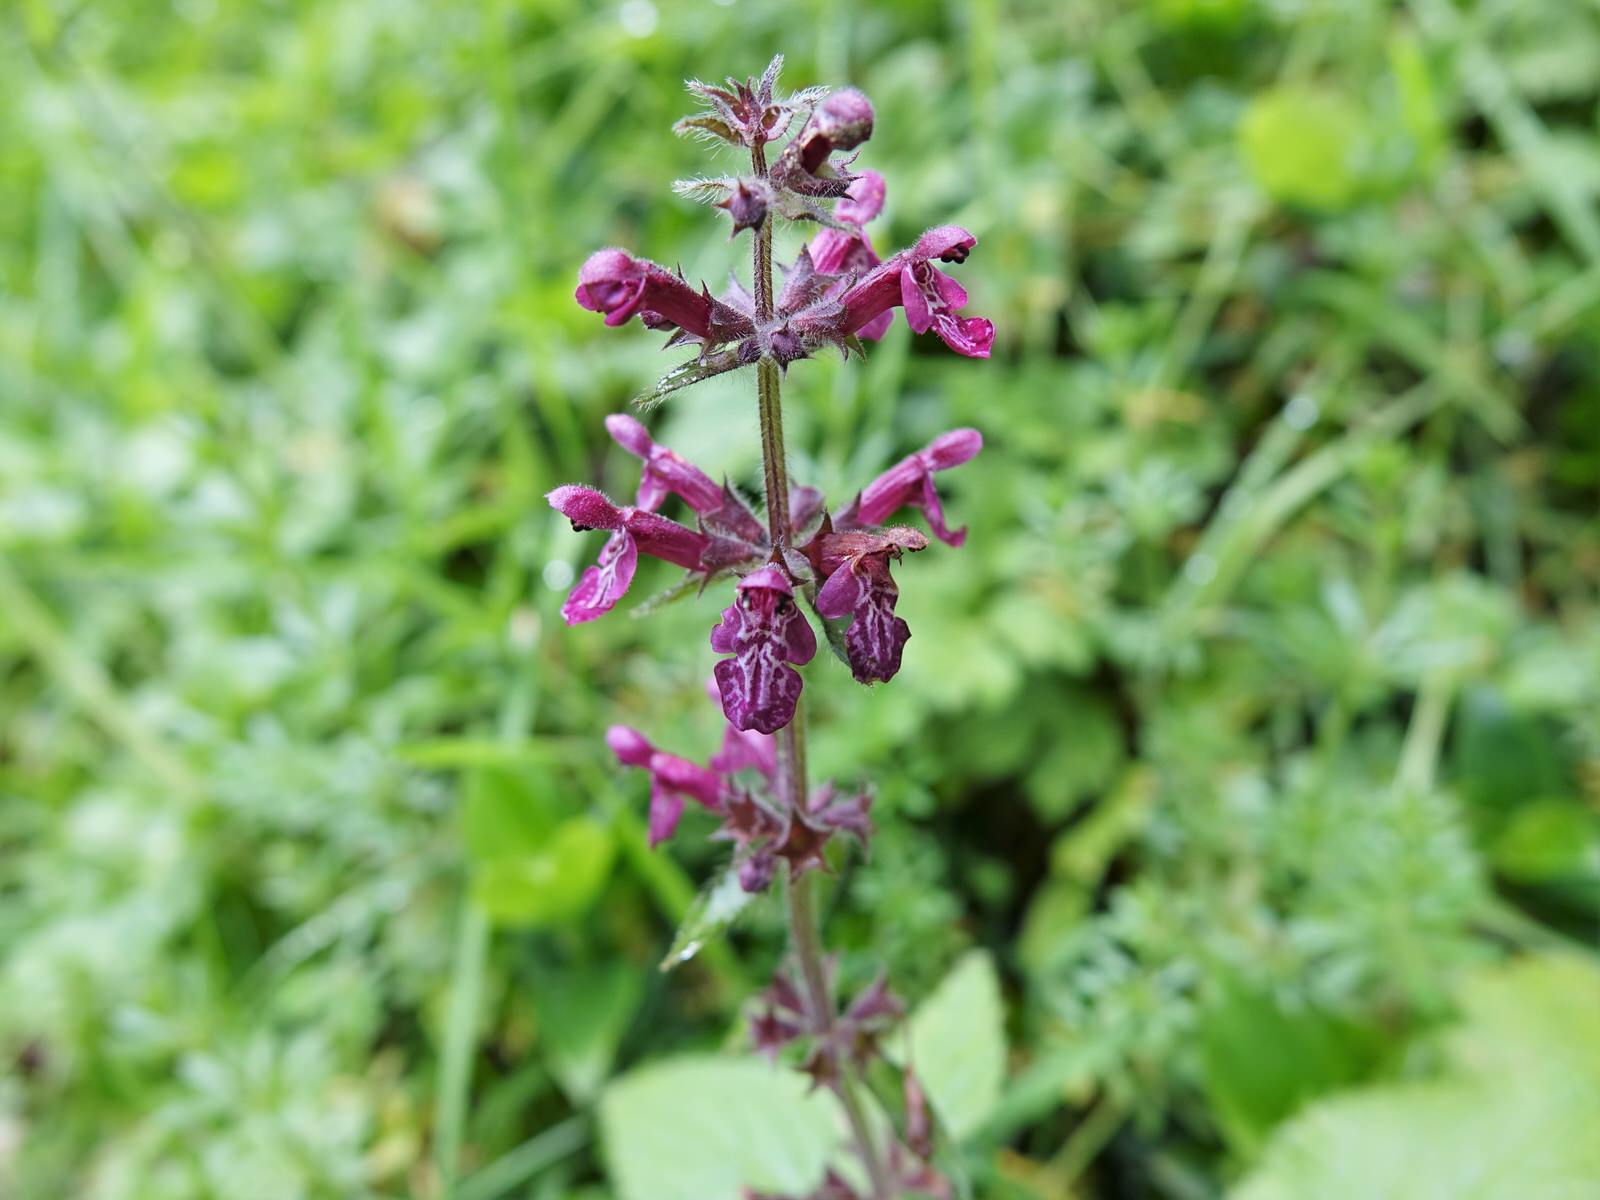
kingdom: Plantae
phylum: Tracheophyta
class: Magnoliopsida
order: Lamiales
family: Lamiaceae
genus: Stachys
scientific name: Stachys sylvatica
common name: Hedge woundwort
